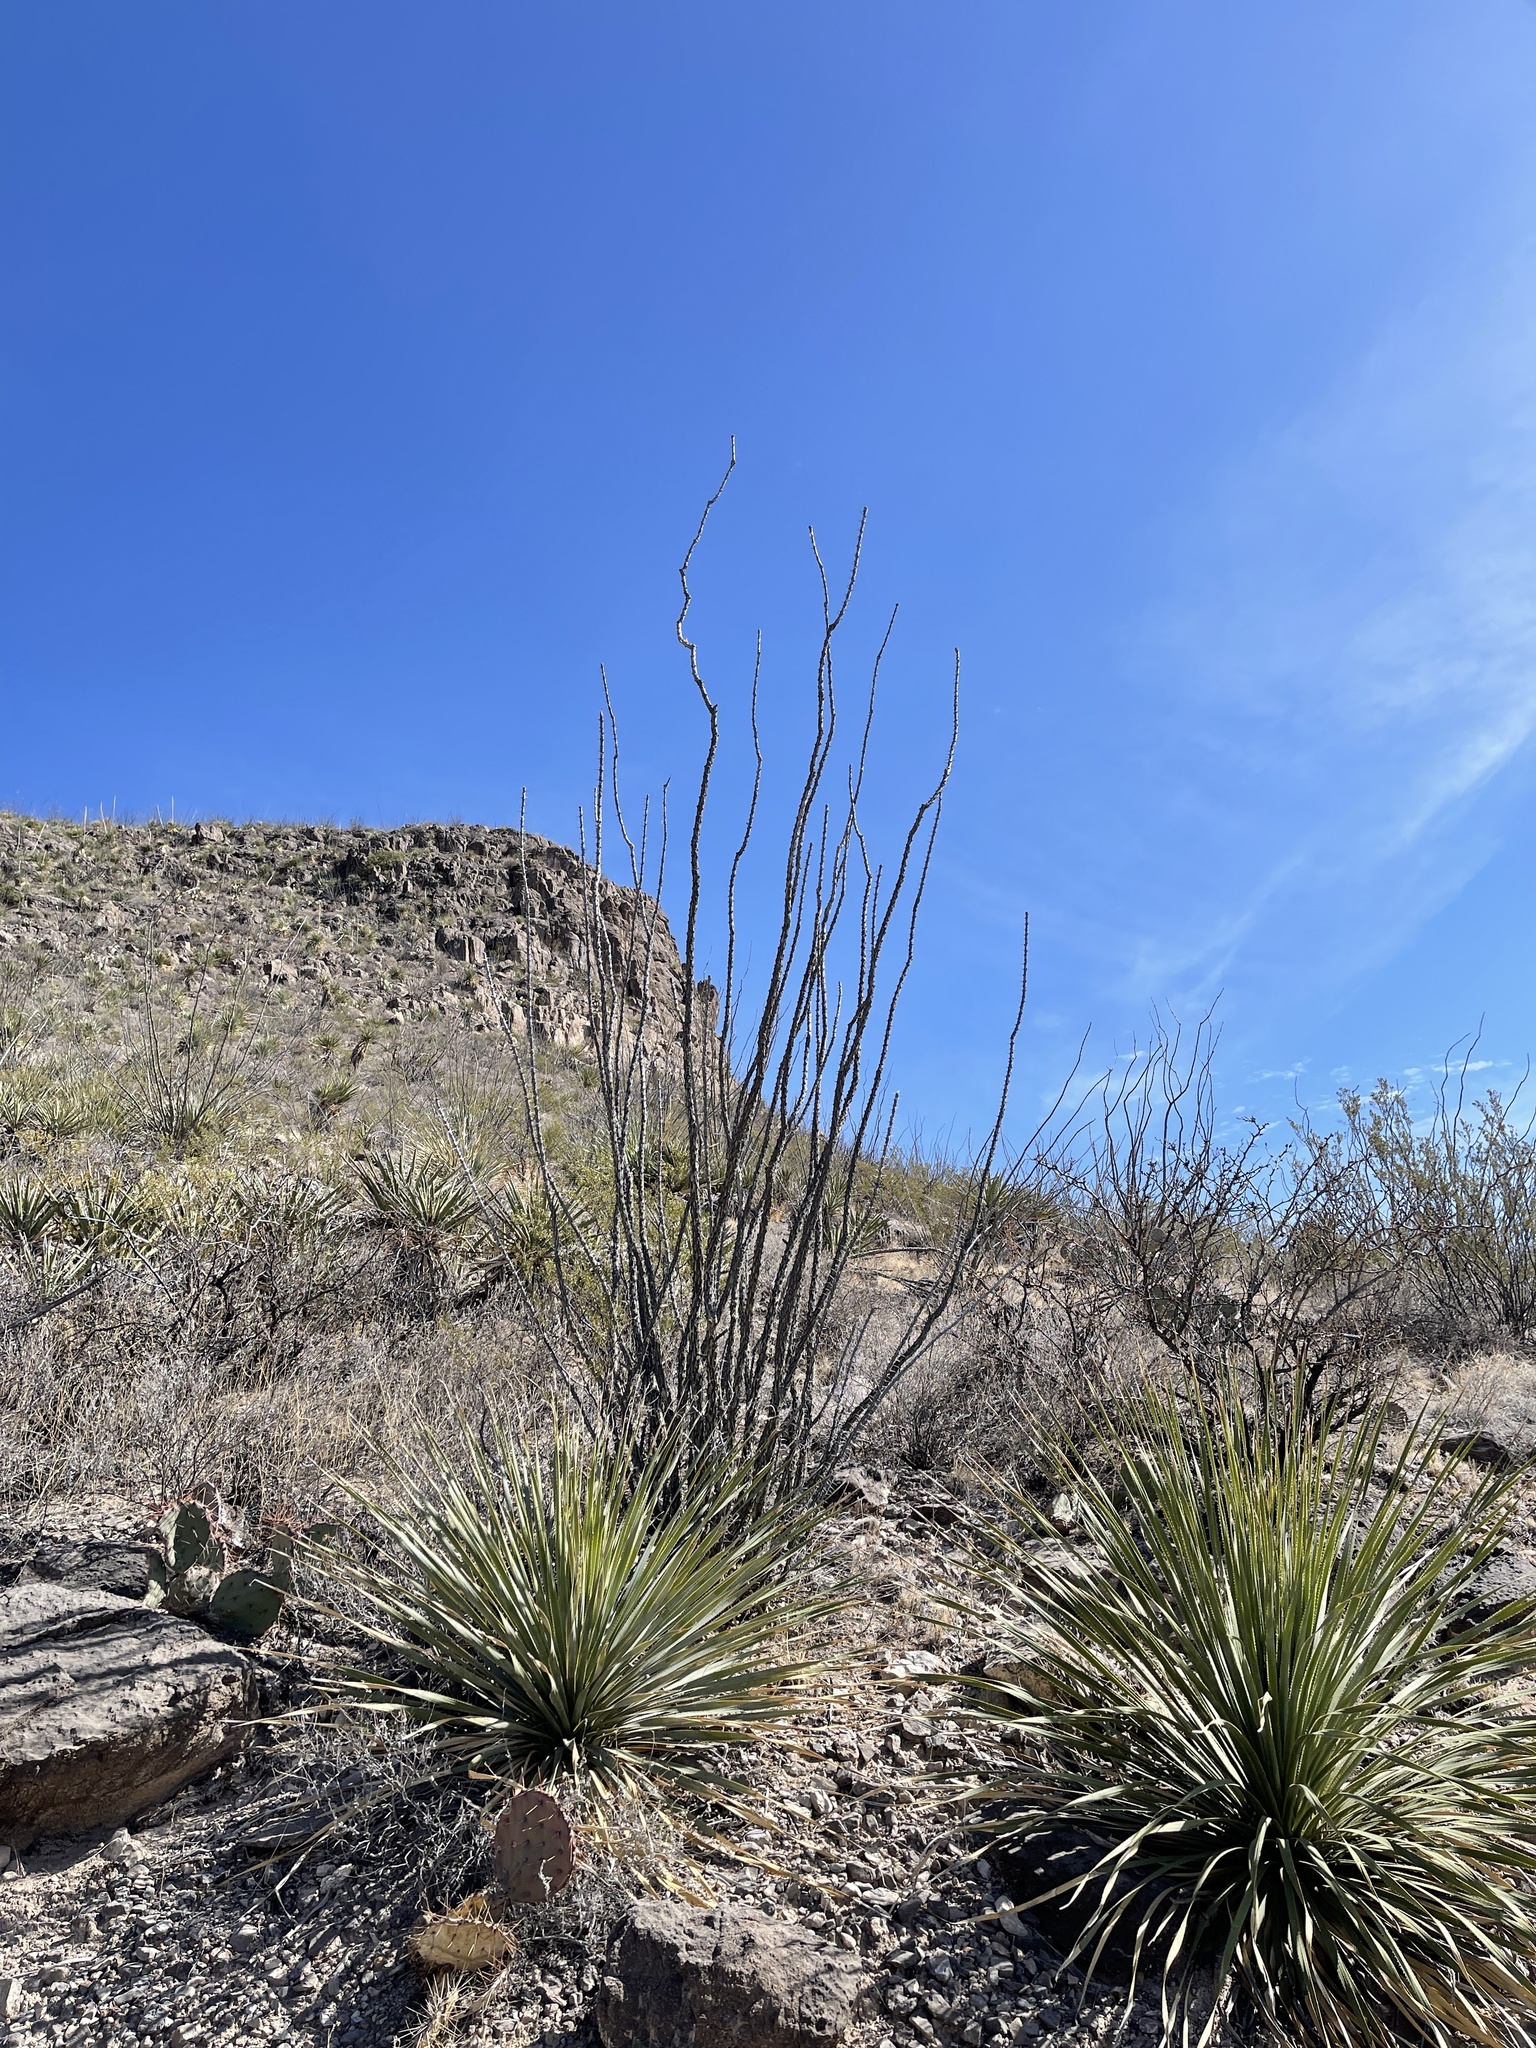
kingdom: Plantae
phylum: Tracheophyta
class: Magnoliopsida
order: Ericales
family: Fouquieriaceae
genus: Fouquieria
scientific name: Fouquieria splendens
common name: Vine-cactus
